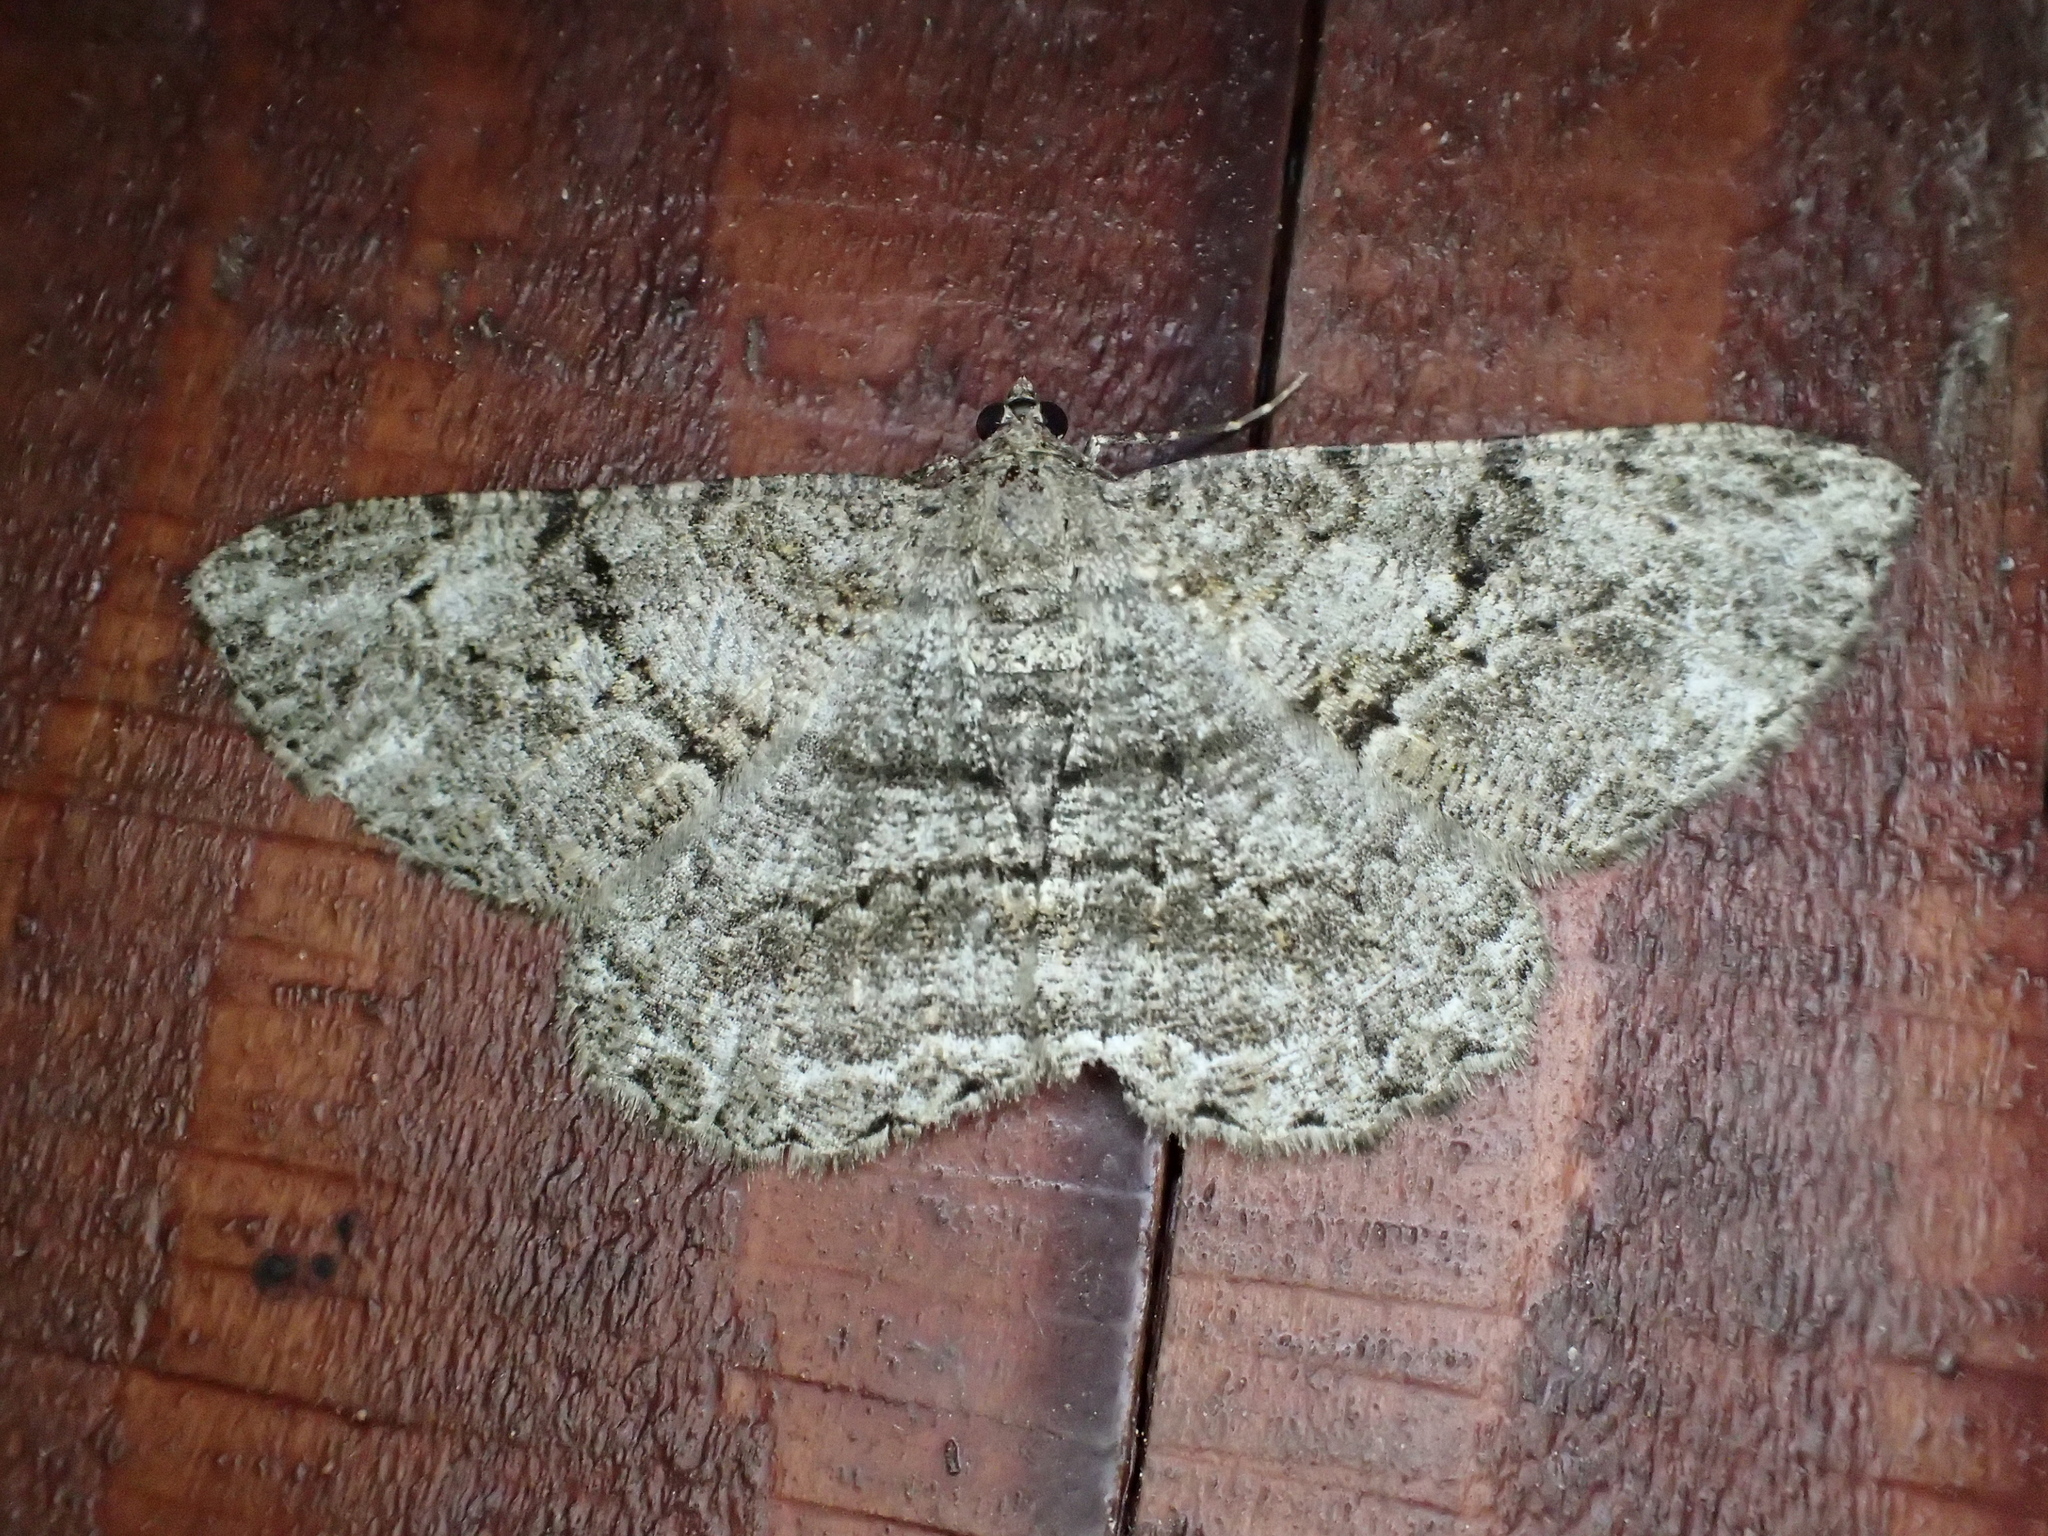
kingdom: Animalia
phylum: Arthropoda
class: Insecta
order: Lepidoptera
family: Geometridae
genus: Peribatodes
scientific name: Peribatodes rhomboidaria
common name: Willow beauty
